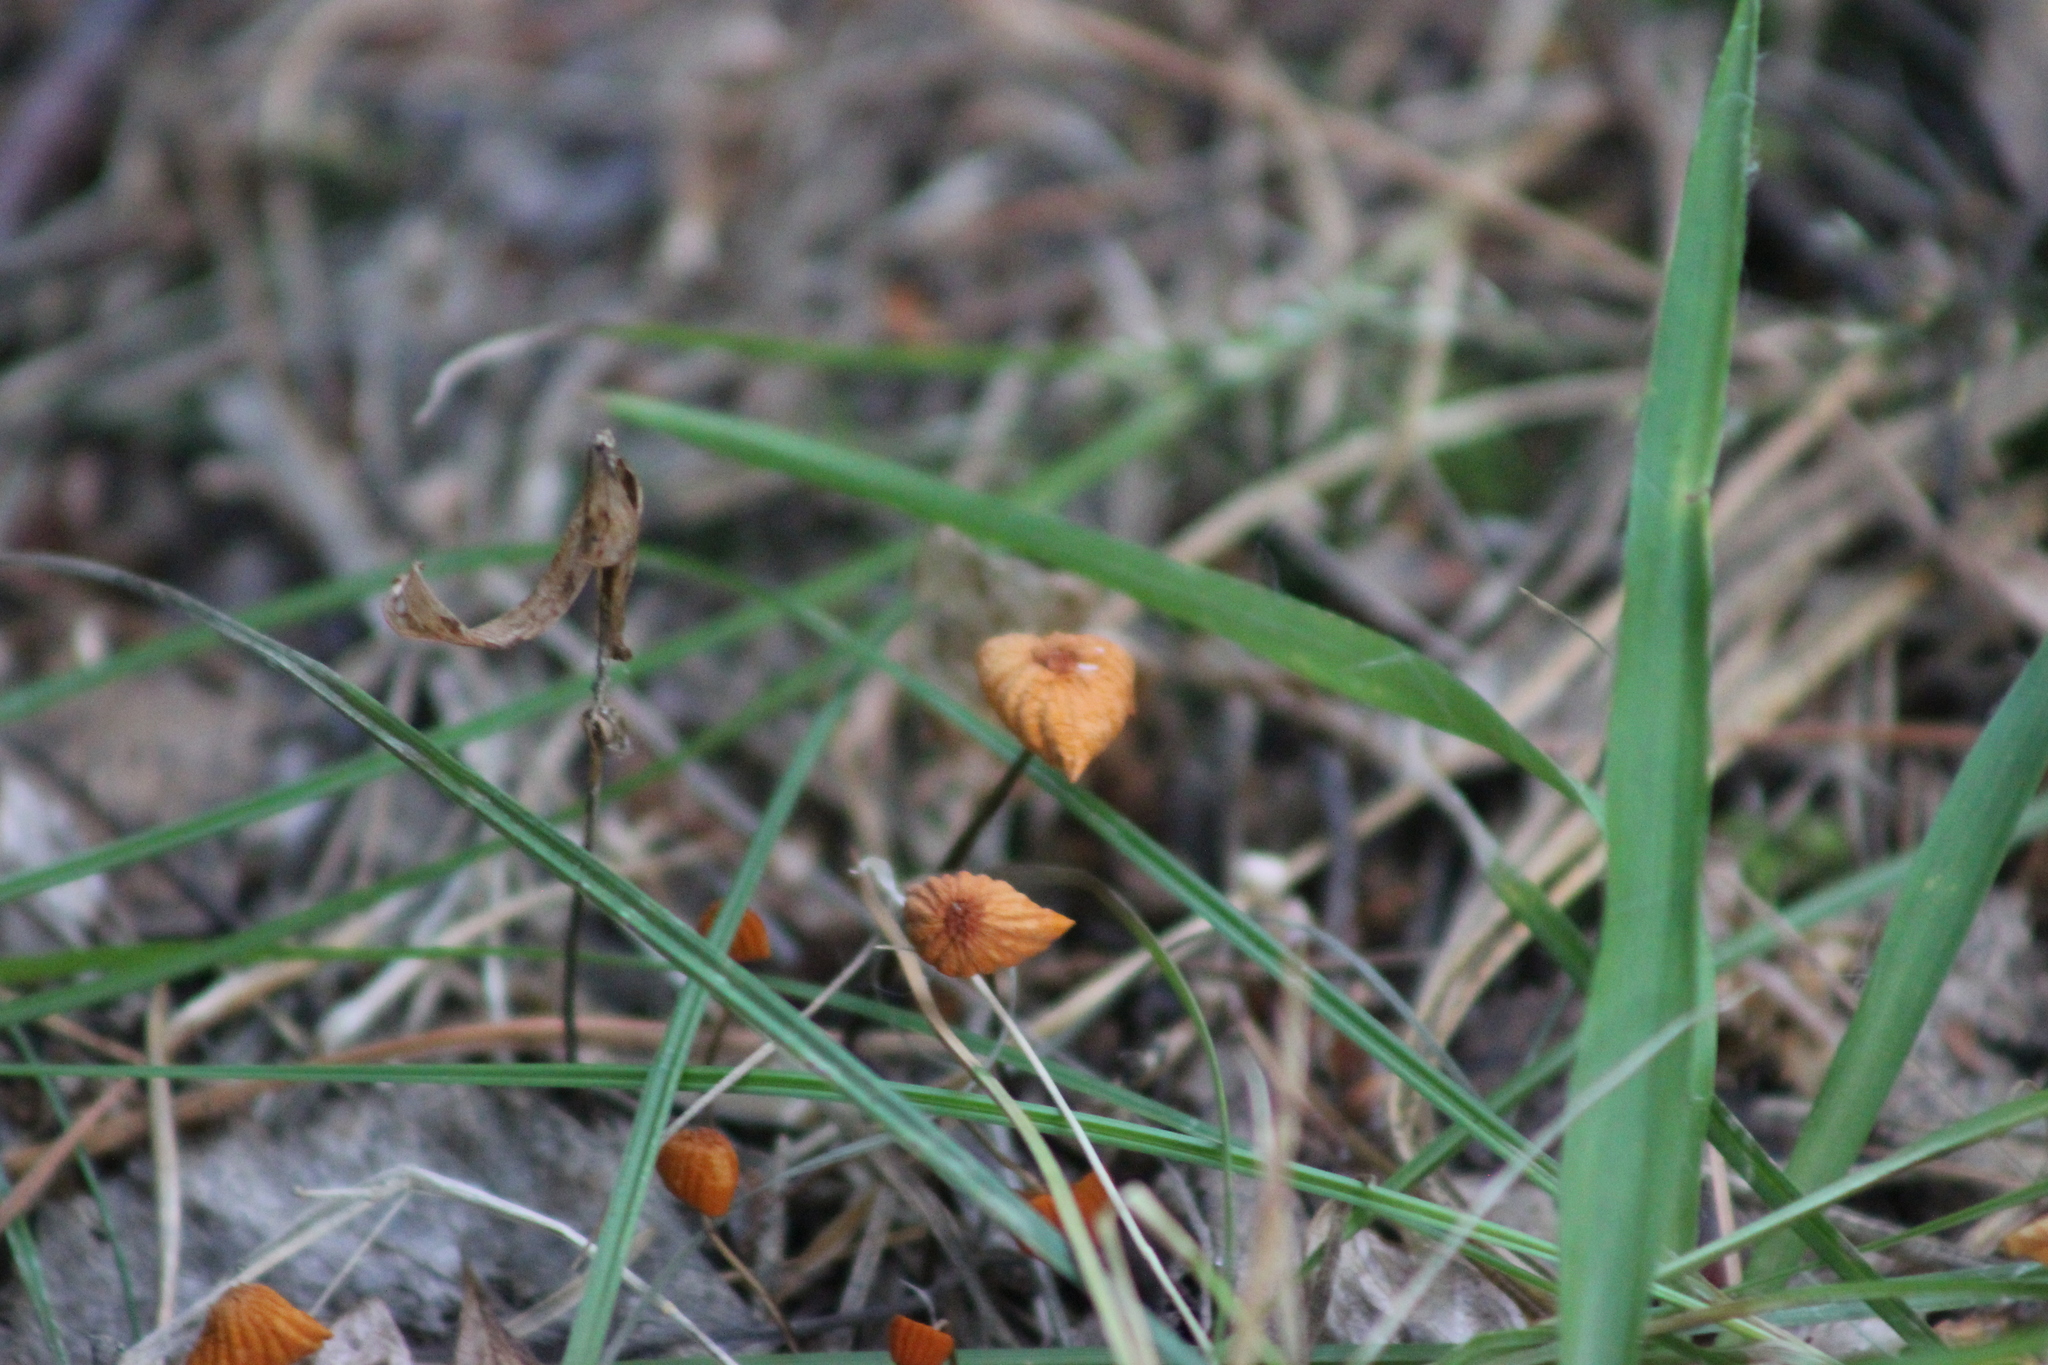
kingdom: Fungi
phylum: Basidiomycota
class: Agaricomycetes
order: Agaricales
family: Marasmiaceae
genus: Marasmius
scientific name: Marasmius siccus
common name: Orange pinwheel
